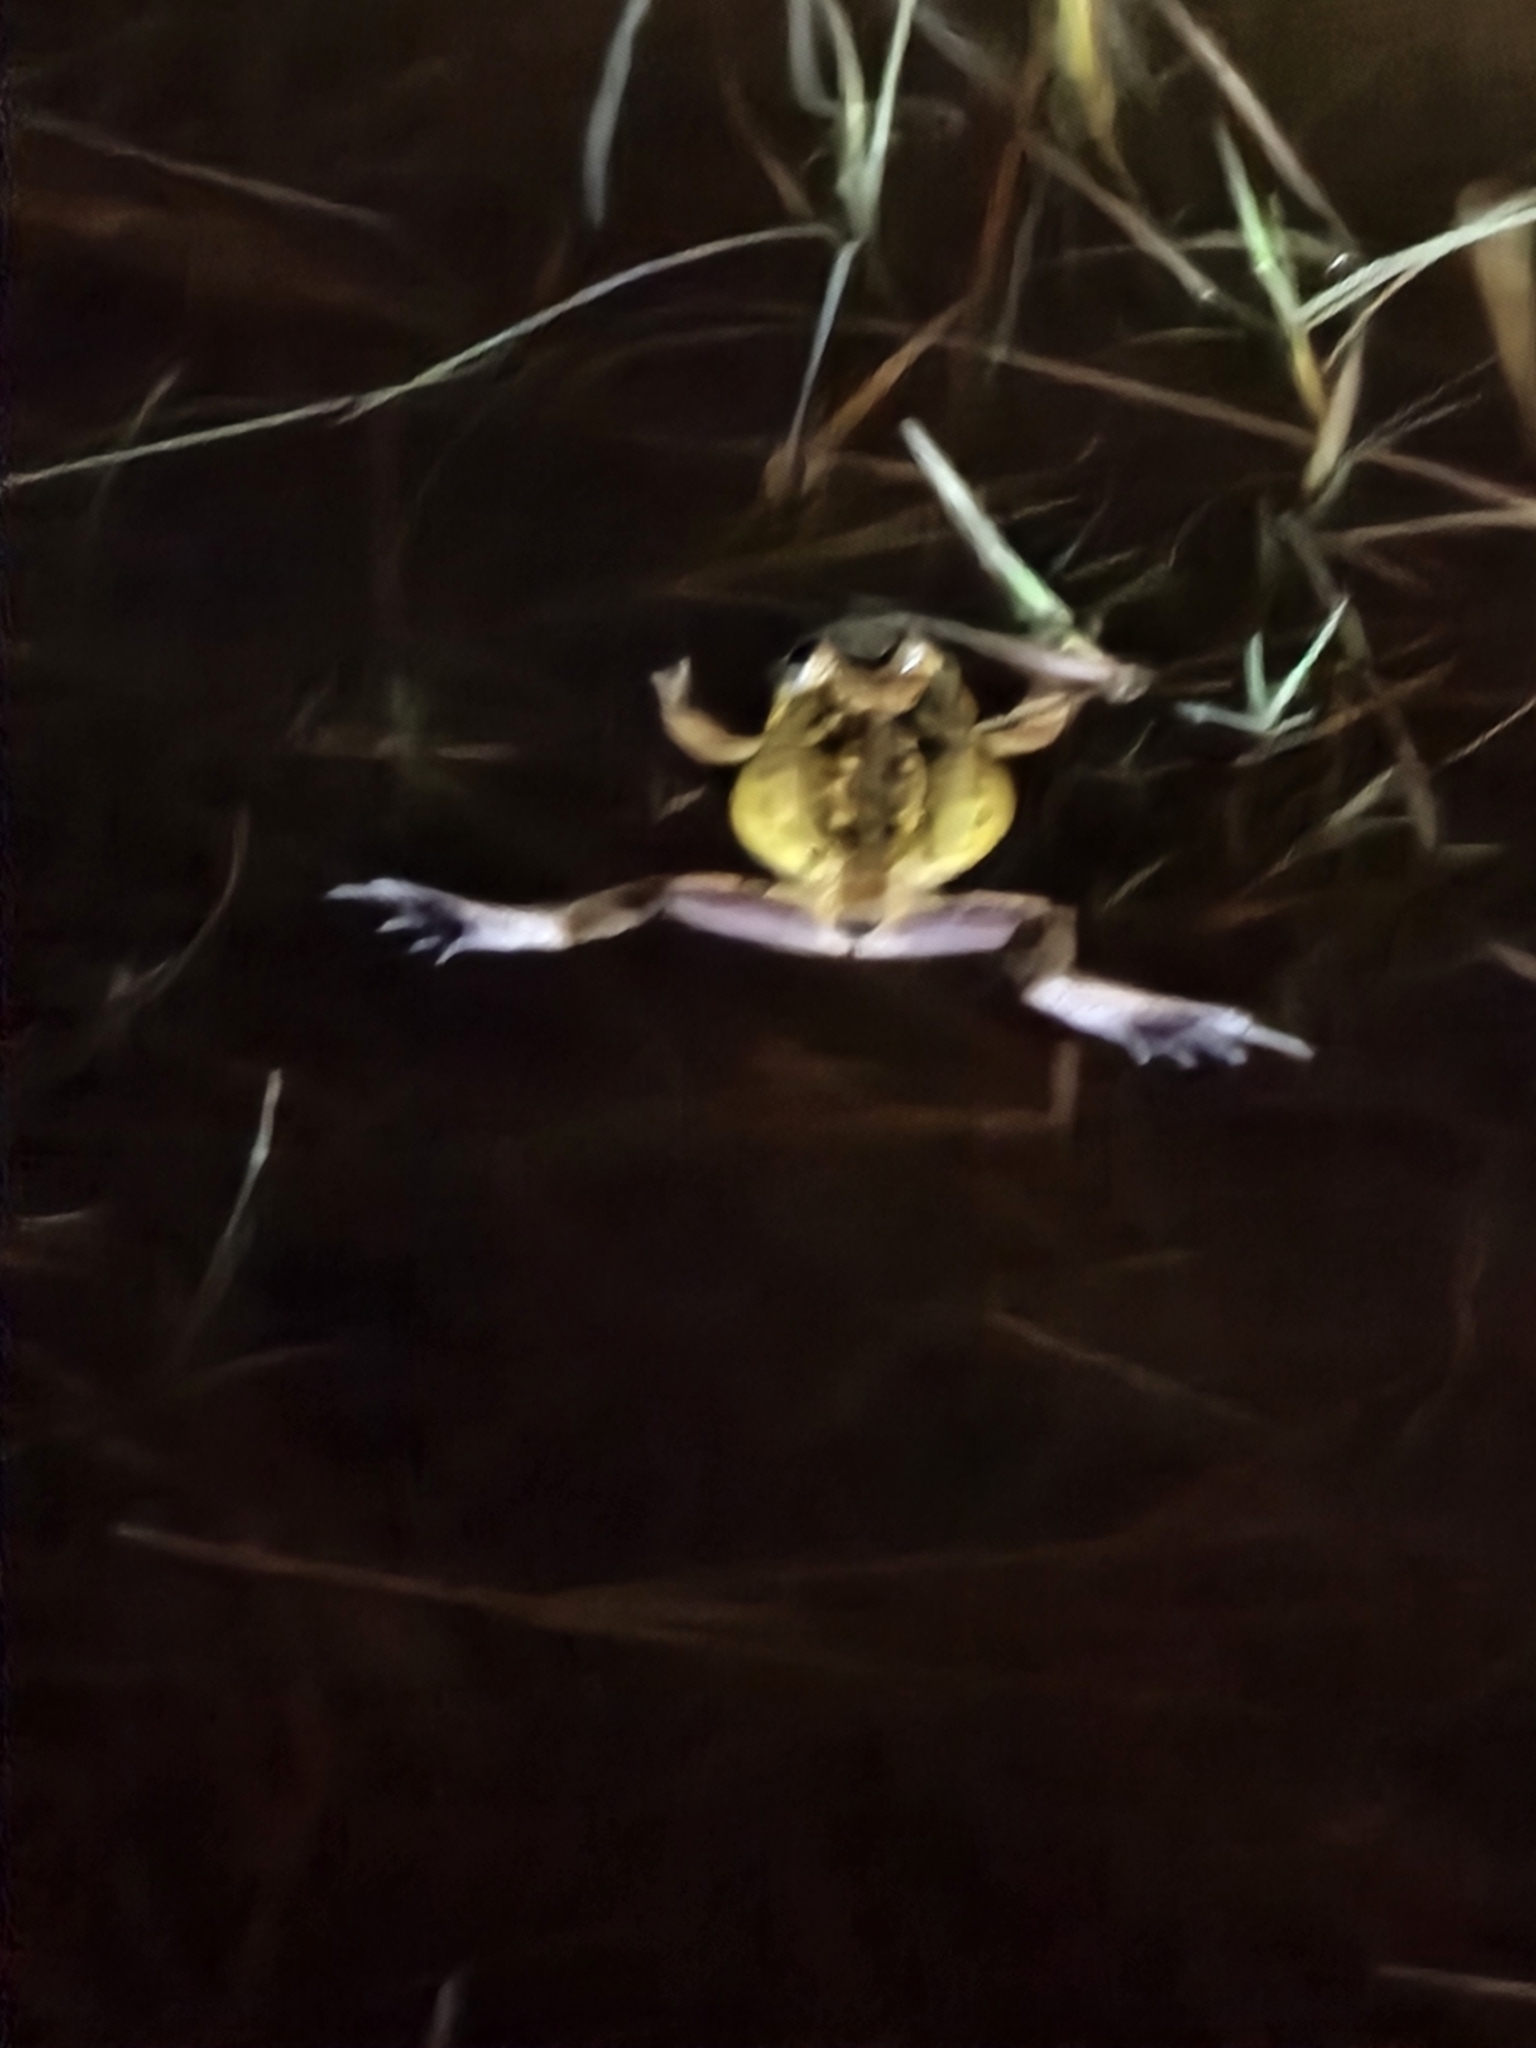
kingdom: Animalia
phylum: Chordata
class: Amphibia
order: Anura
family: Limnodynastidae
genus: Platyplectrum
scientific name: Platyplectrum ornatum
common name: Ornate burrowing frog
